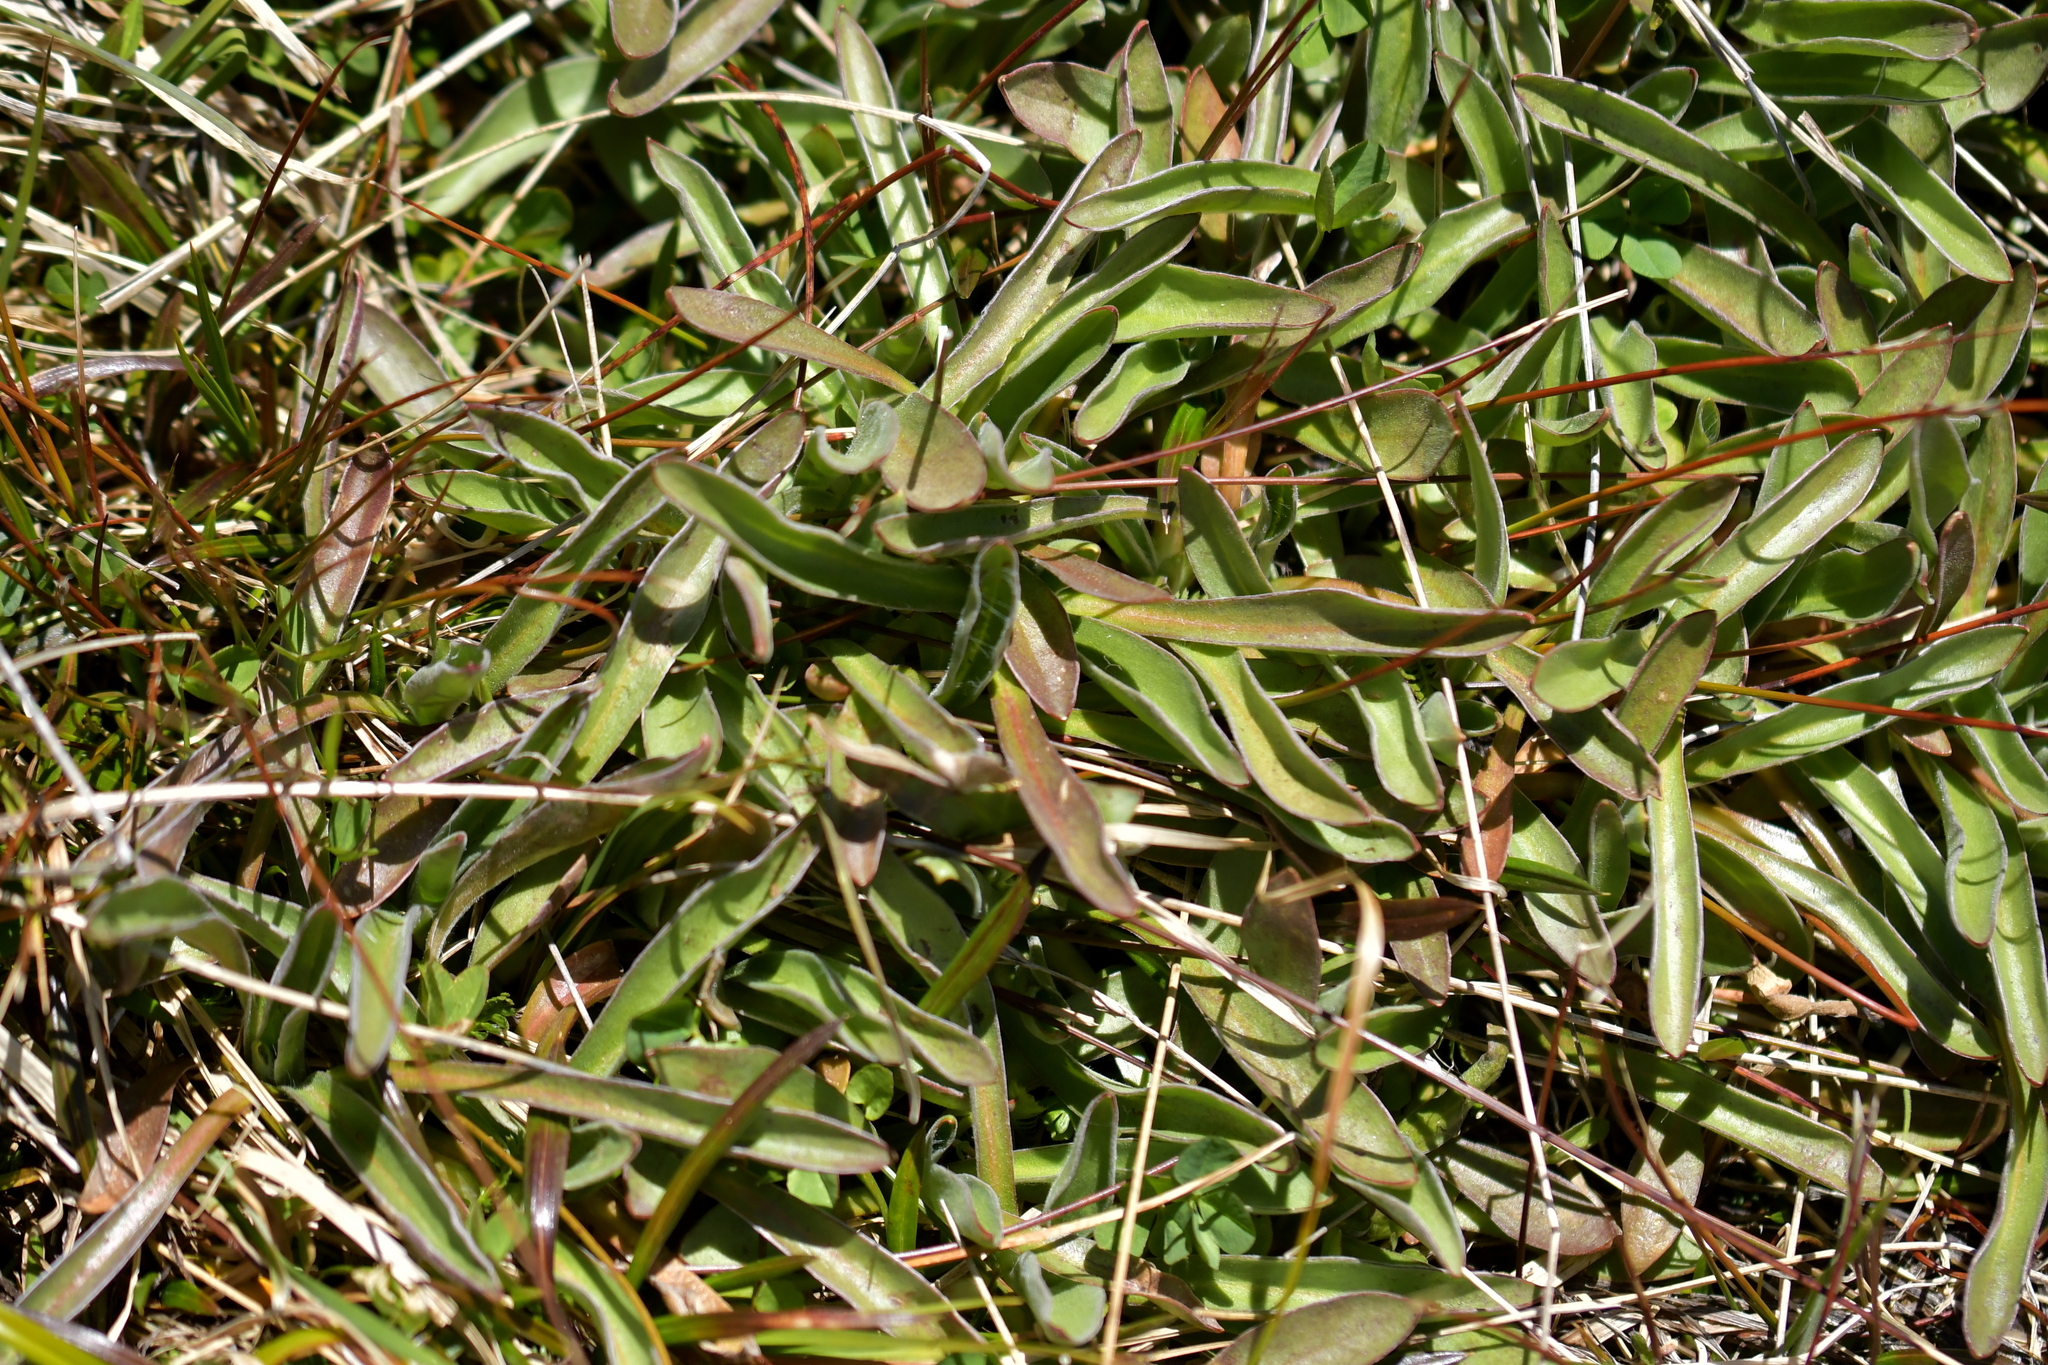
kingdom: Plantae
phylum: Tracheophyta
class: Magnoliopsida
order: Asterales
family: Asteraceae
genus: Microseris
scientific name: Microseris scapigera
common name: Yam daisy
